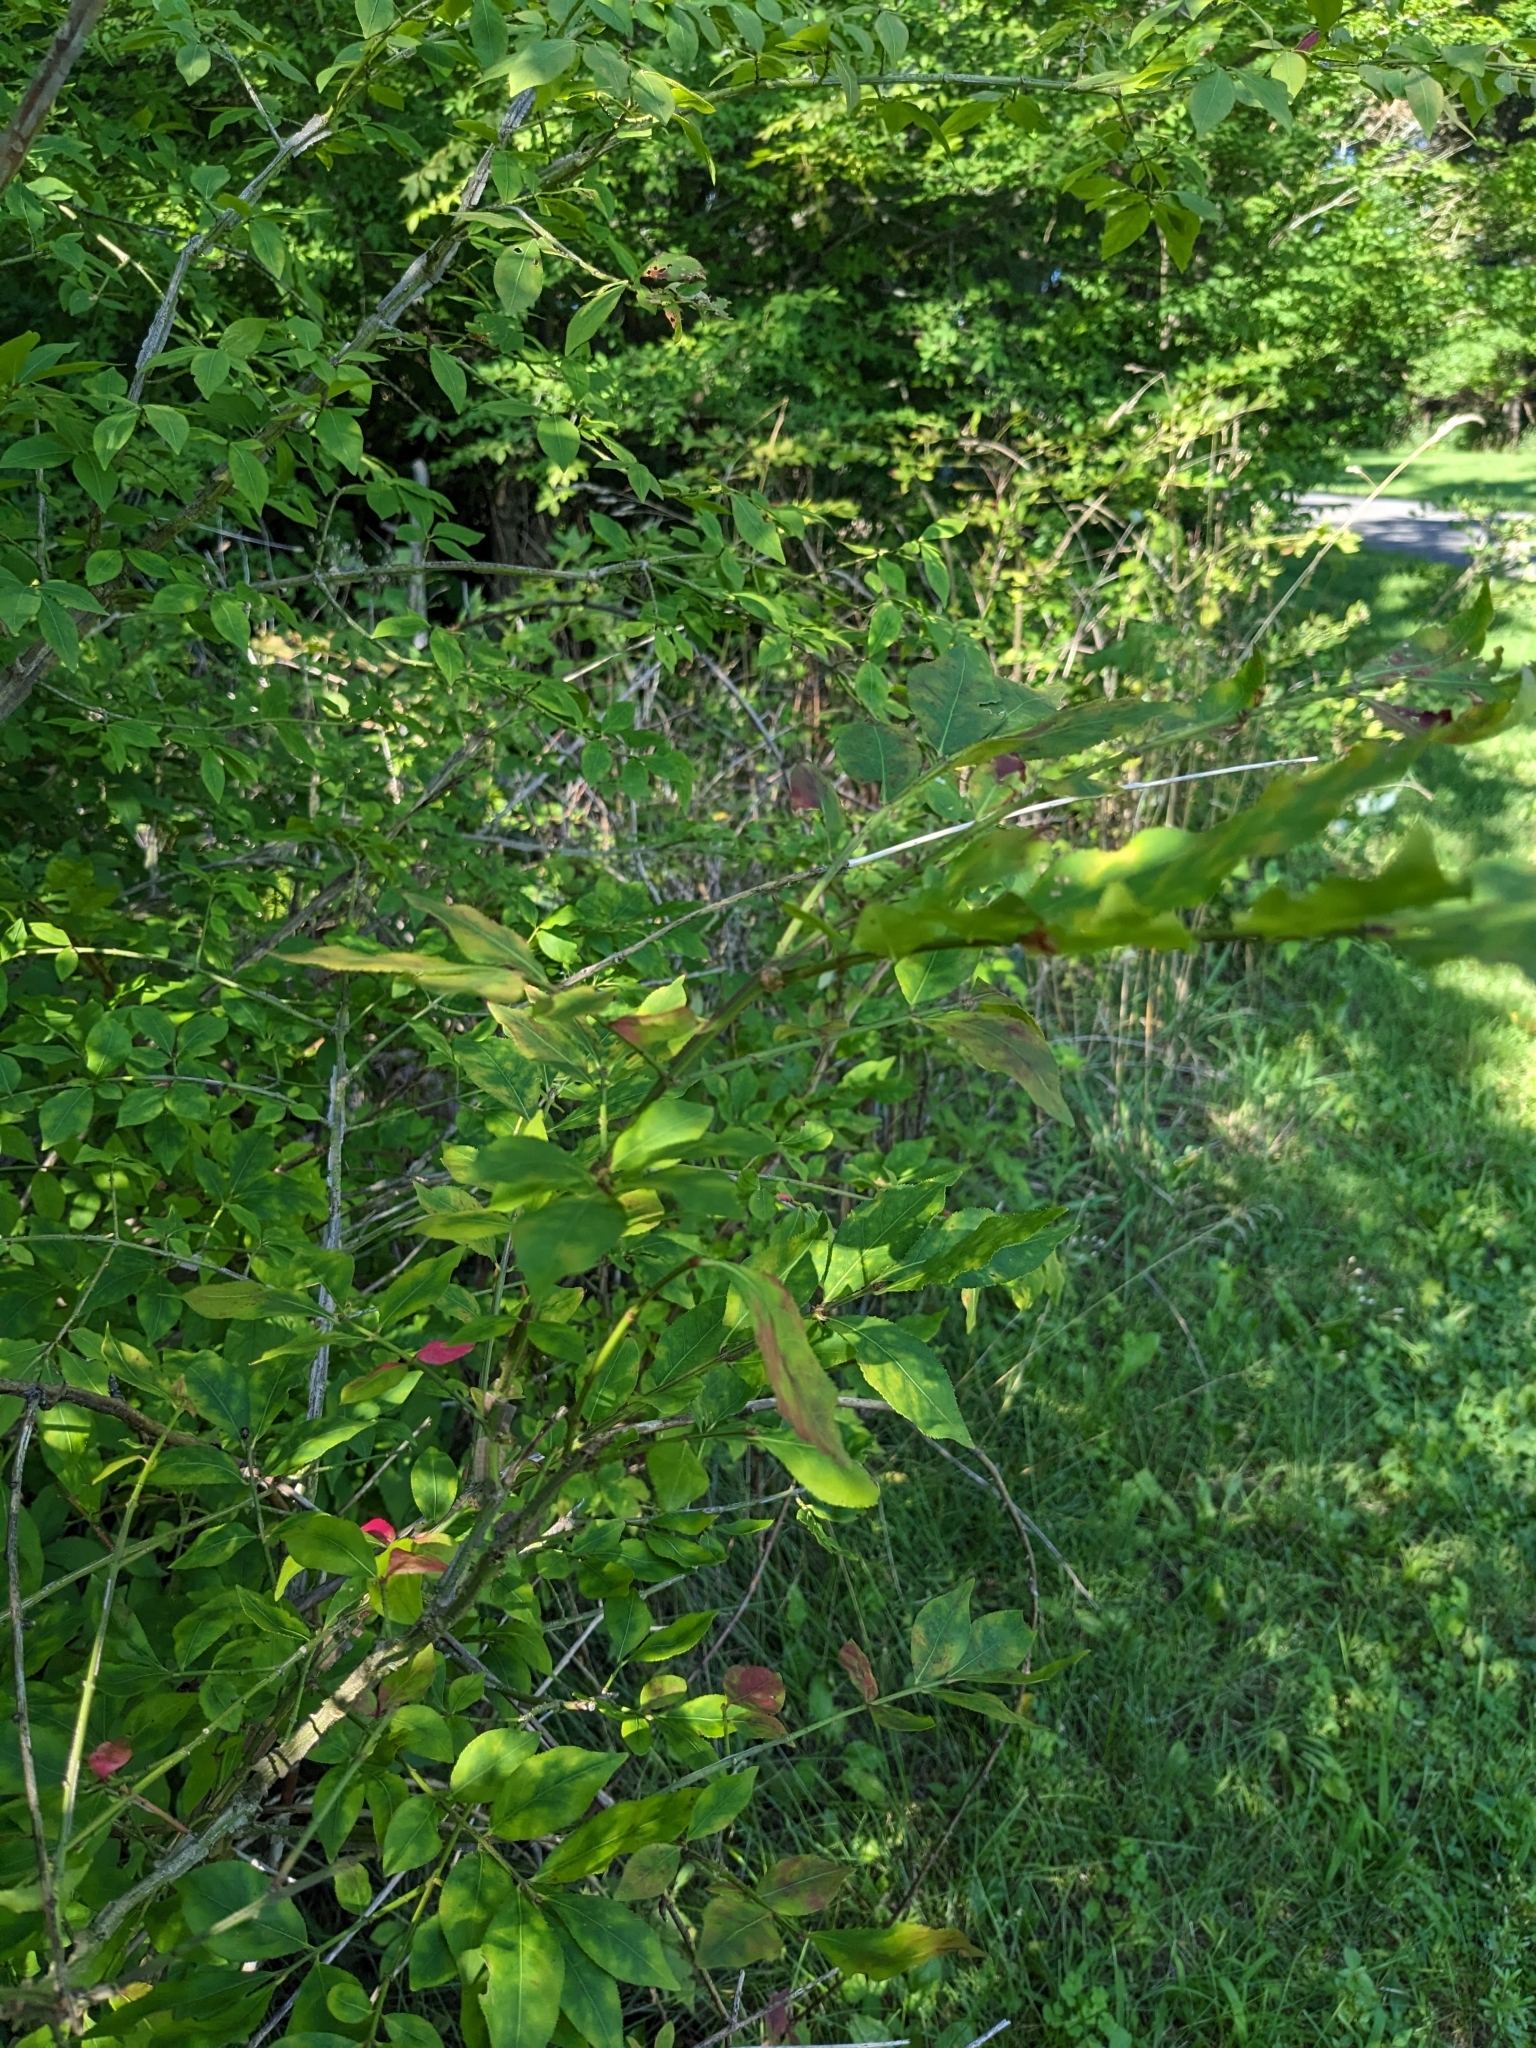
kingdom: Plantae
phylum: Tracheophyta
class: Magnoliopsida
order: Celastrales
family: Celastraceae
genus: Euonymus
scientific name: Euonymus alatus
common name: Winged euonymus
